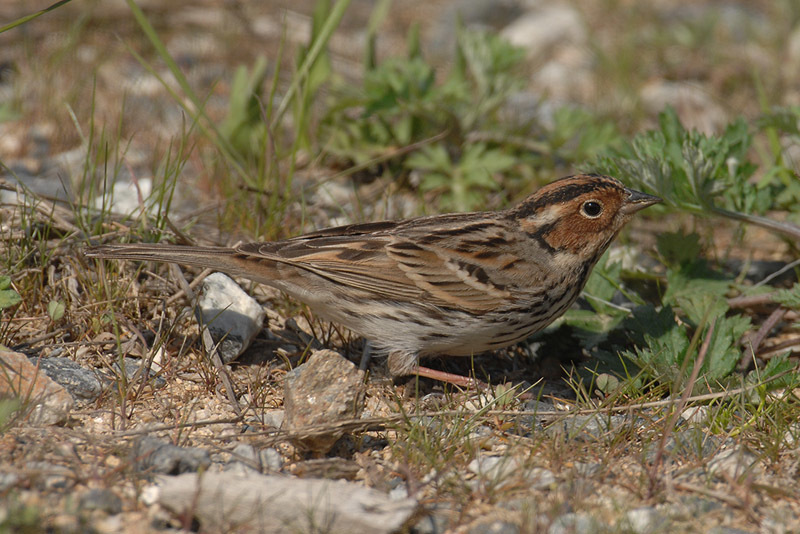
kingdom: Animalia
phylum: Chordata
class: Aves
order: Passeriformes
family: Emberizidae
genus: Emberiza
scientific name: Emberiza pusilla
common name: Little bunting
